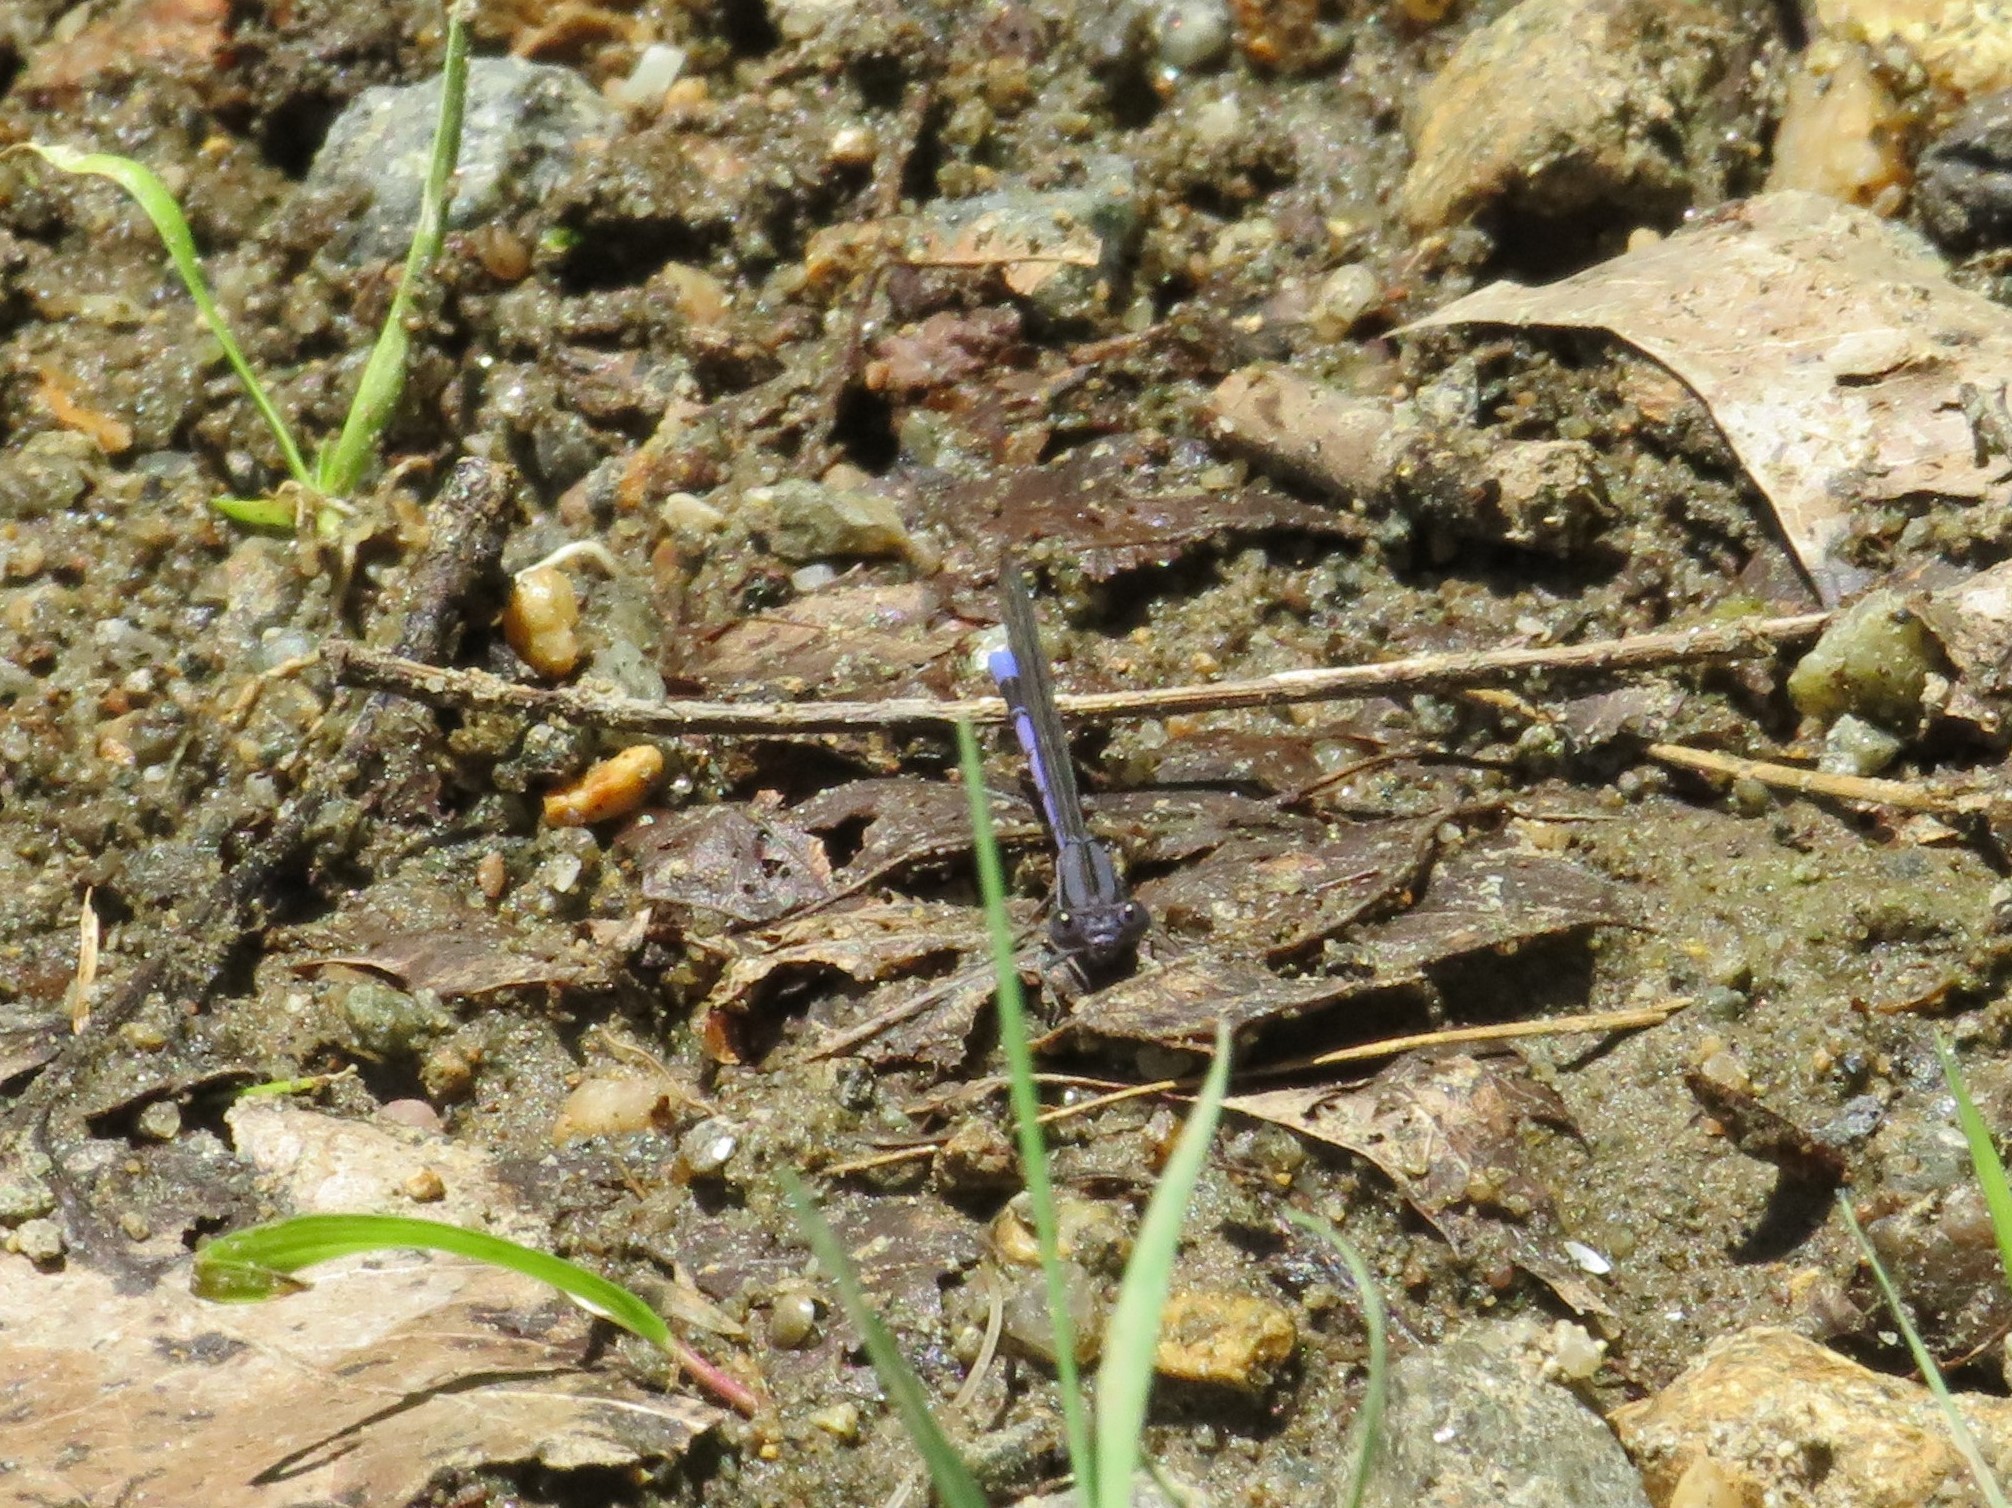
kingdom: Animalia
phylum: Arthropoda
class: Insecta
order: Odonata
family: Coenagrionidae
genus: Argia
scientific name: Argia fumipennis
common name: Variable dancer
